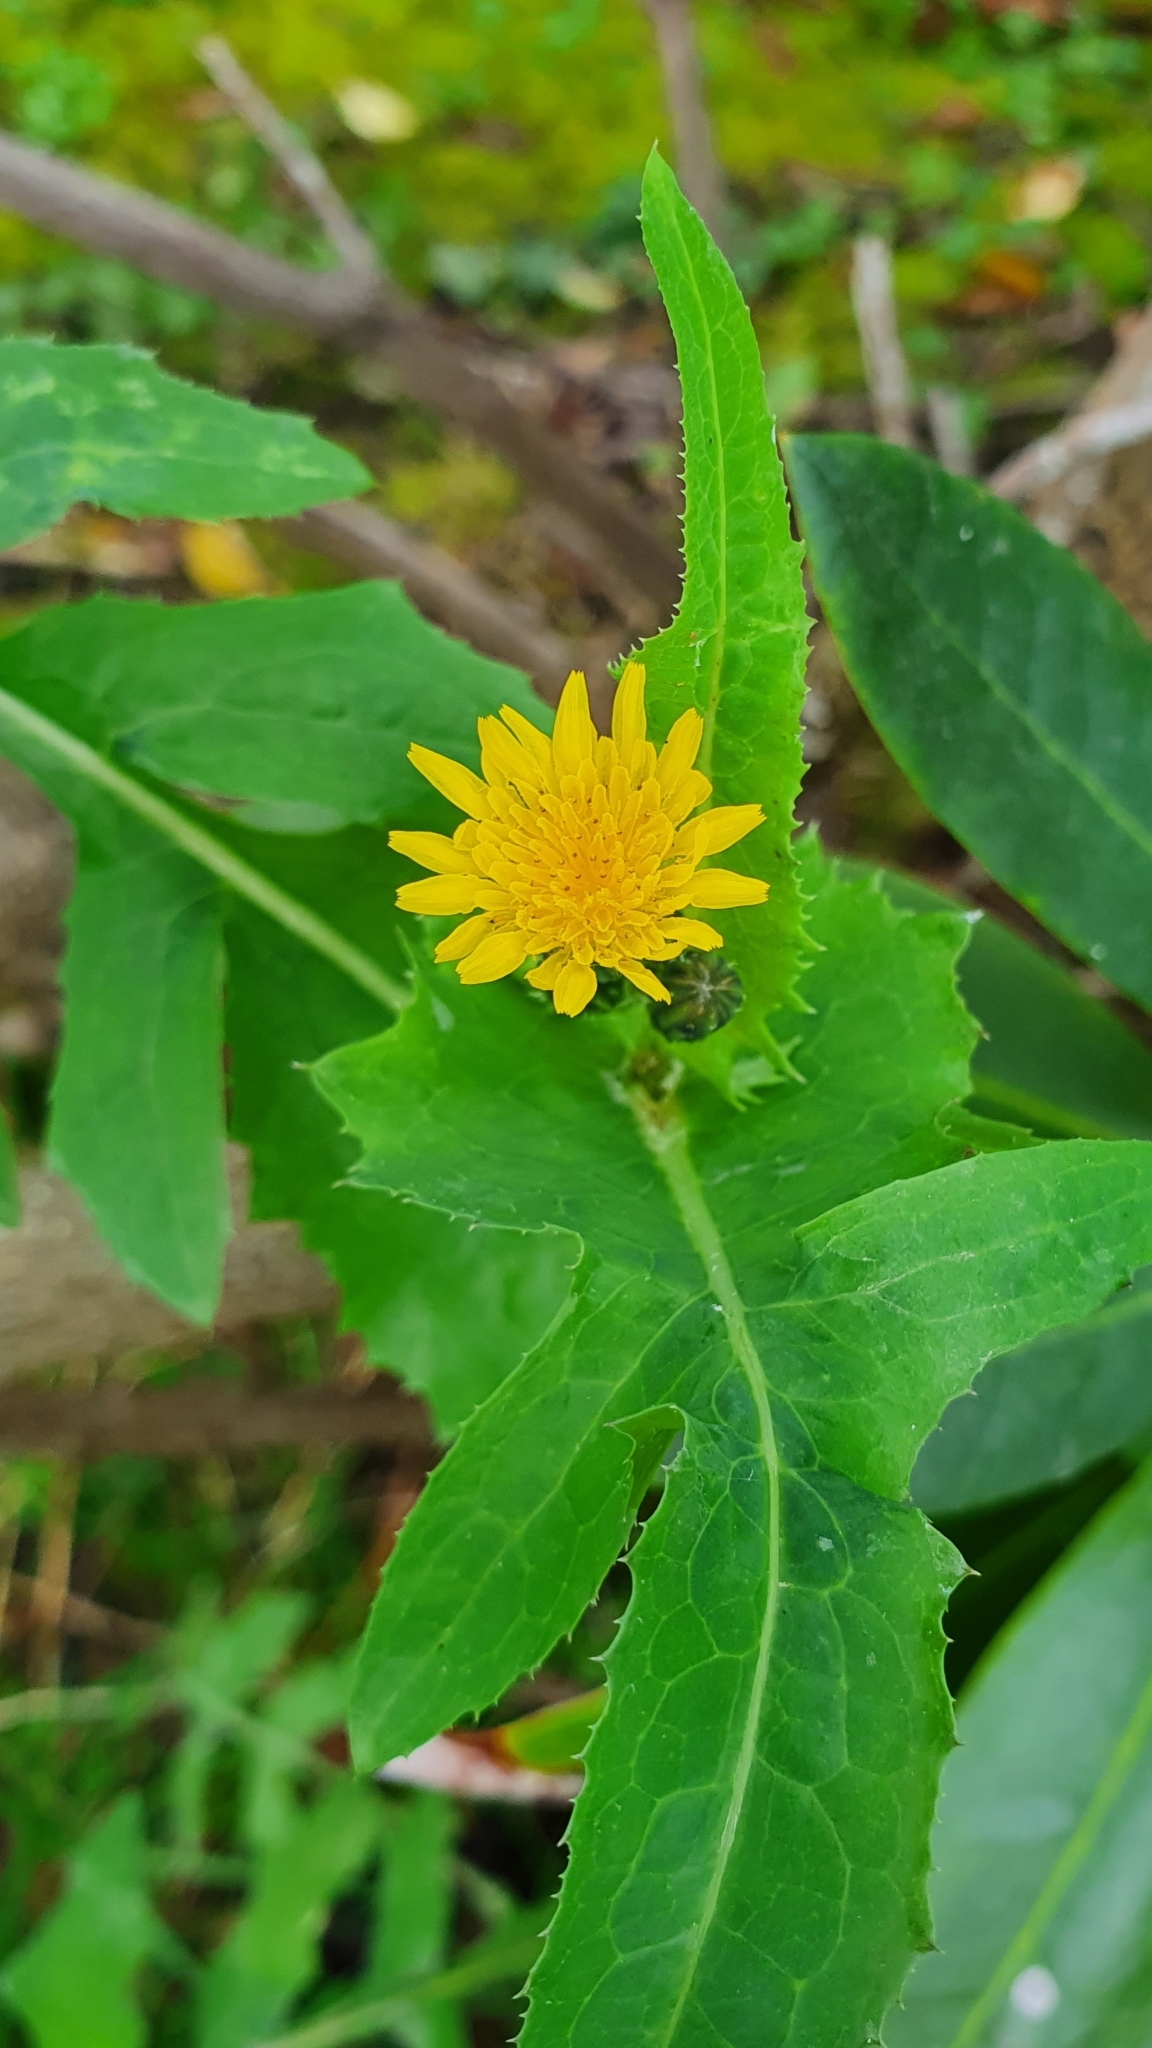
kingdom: Plantae
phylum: Tracheophyta
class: Magnoliopsida
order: Asterales
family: Asteraceae
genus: Sonchus
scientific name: Sonchus oleraceus
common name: Common sowthistle
